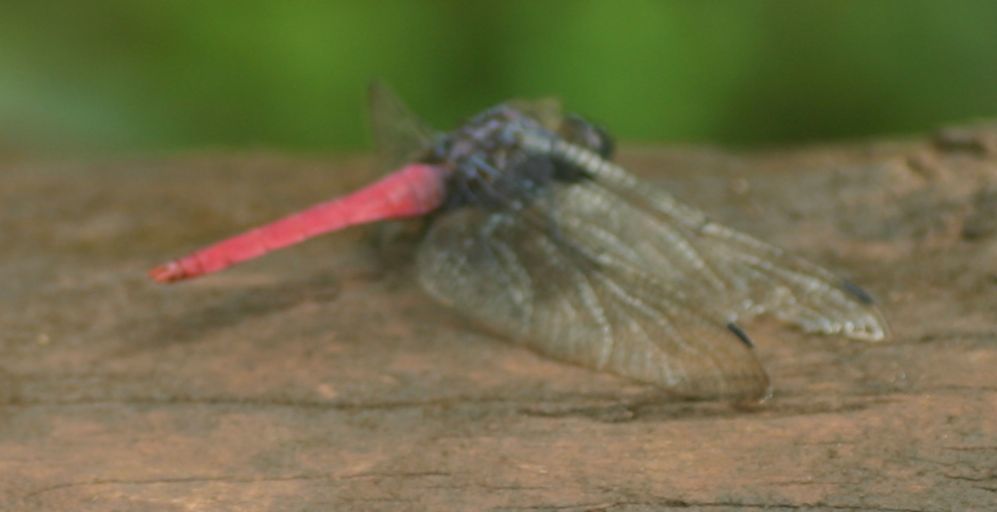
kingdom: Animalia
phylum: Arthropoda
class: Insecta
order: Odonata
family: Libellulidae
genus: Orthetrum
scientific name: Orthetrum pruinosum
